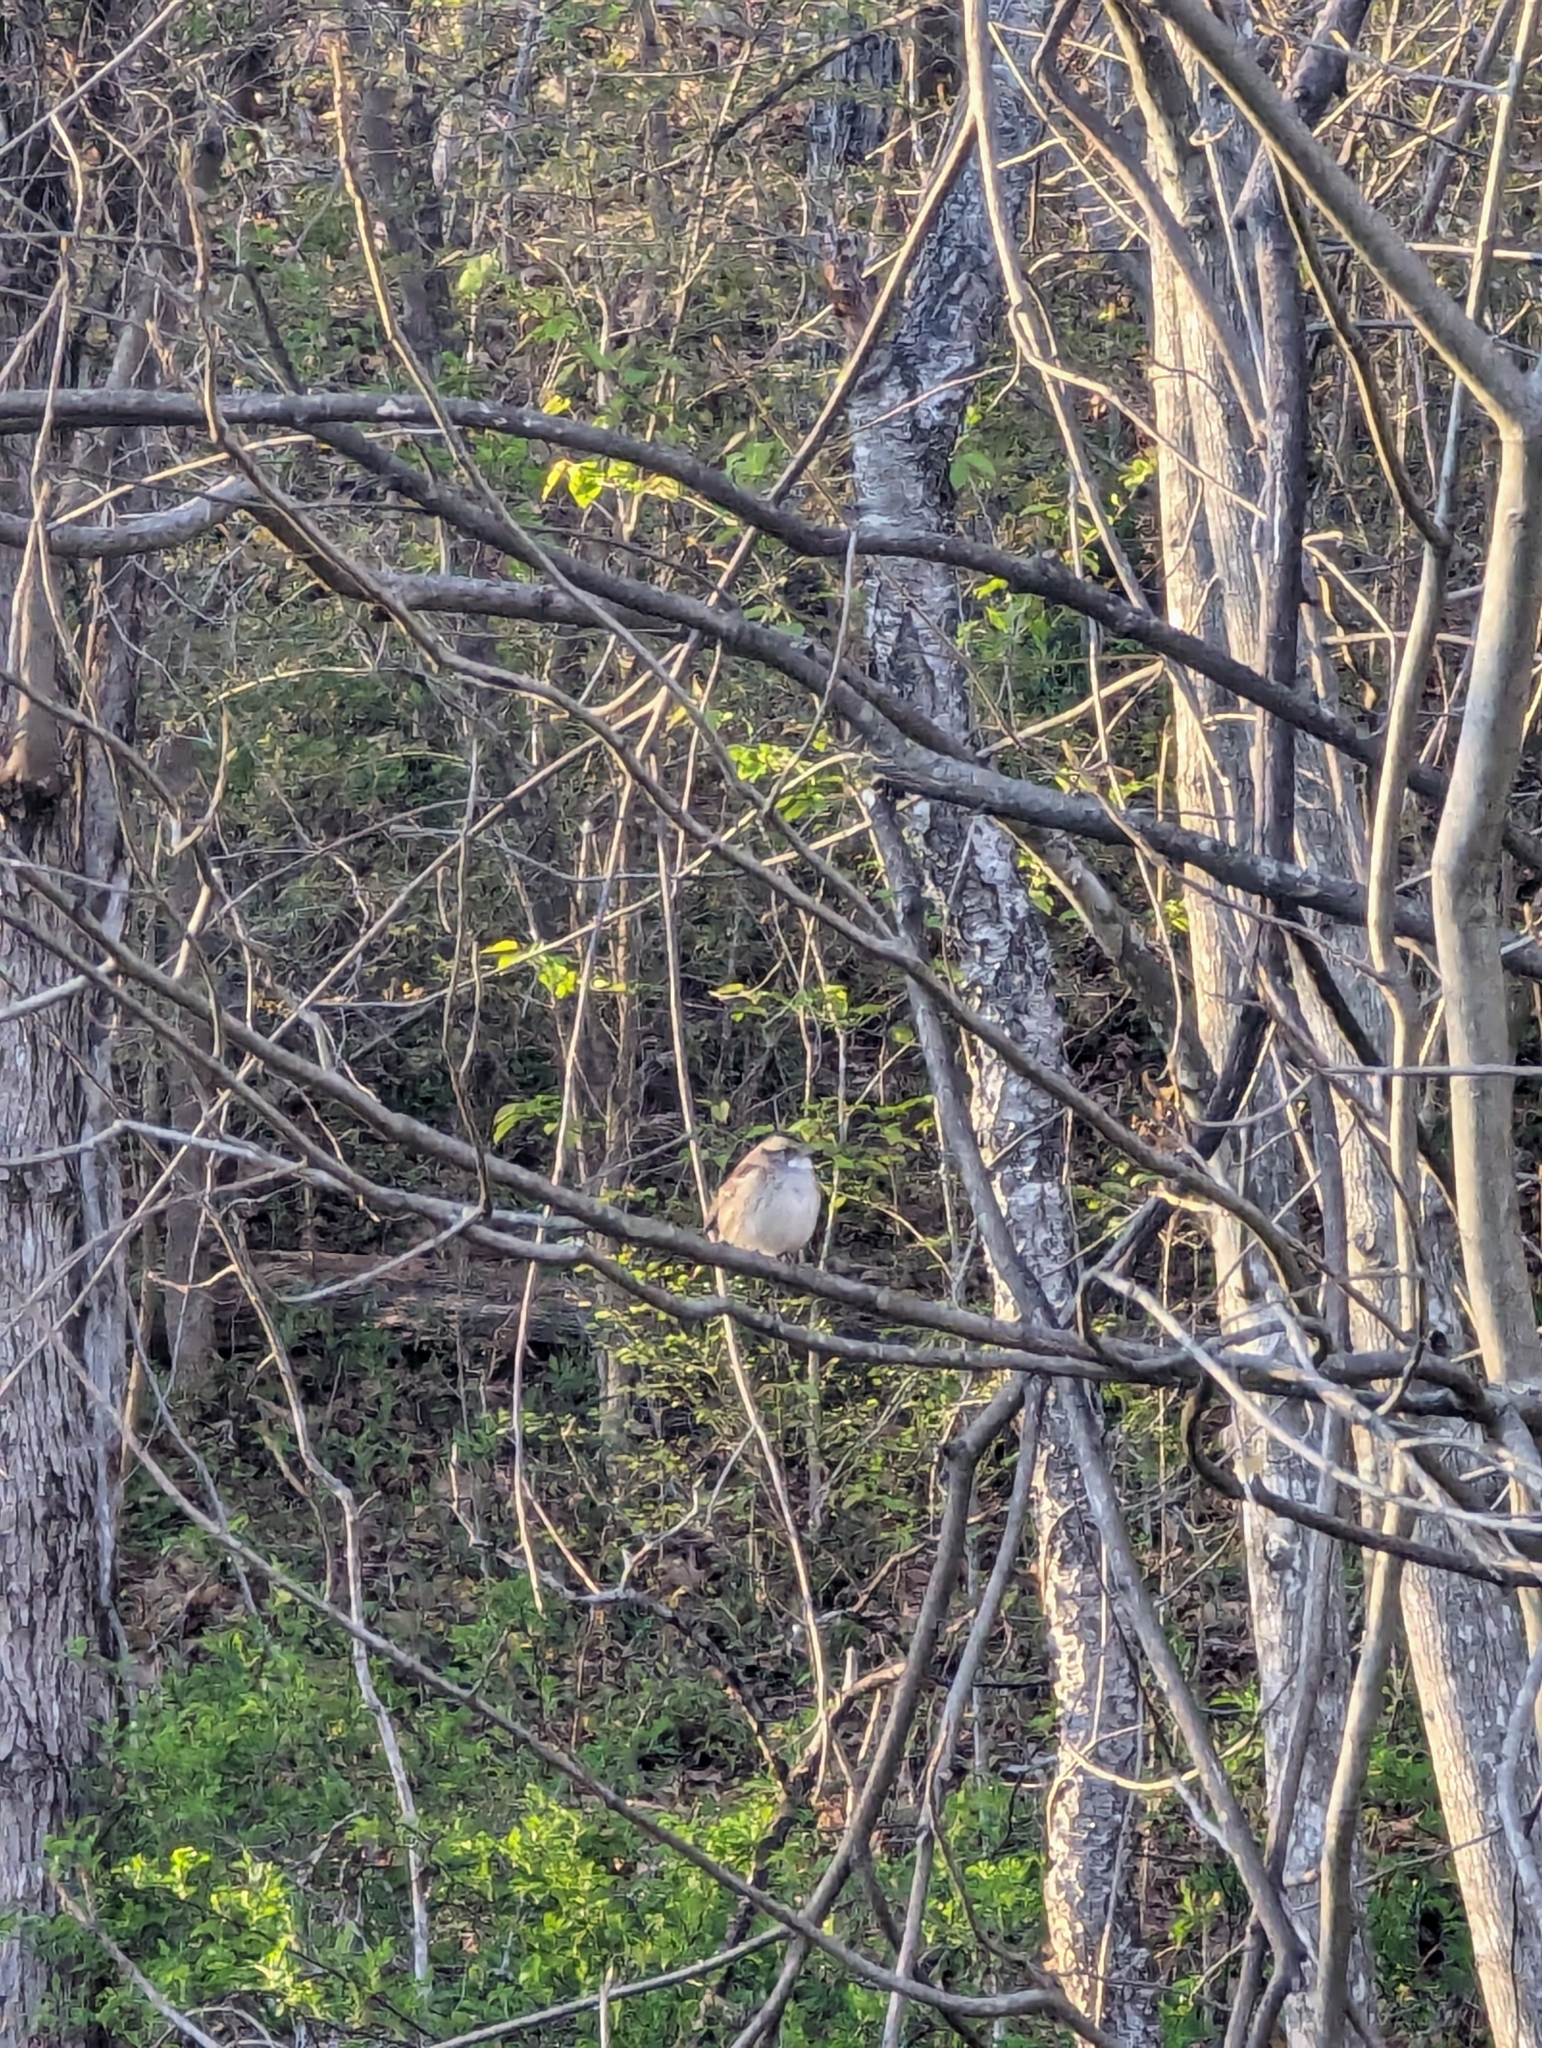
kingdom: Animalia
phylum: Chordata
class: Aves
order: Passeriformes
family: Passerellidae
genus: Zonotrichia
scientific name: Zonotrichia albicollis
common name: White-throated sparrow
